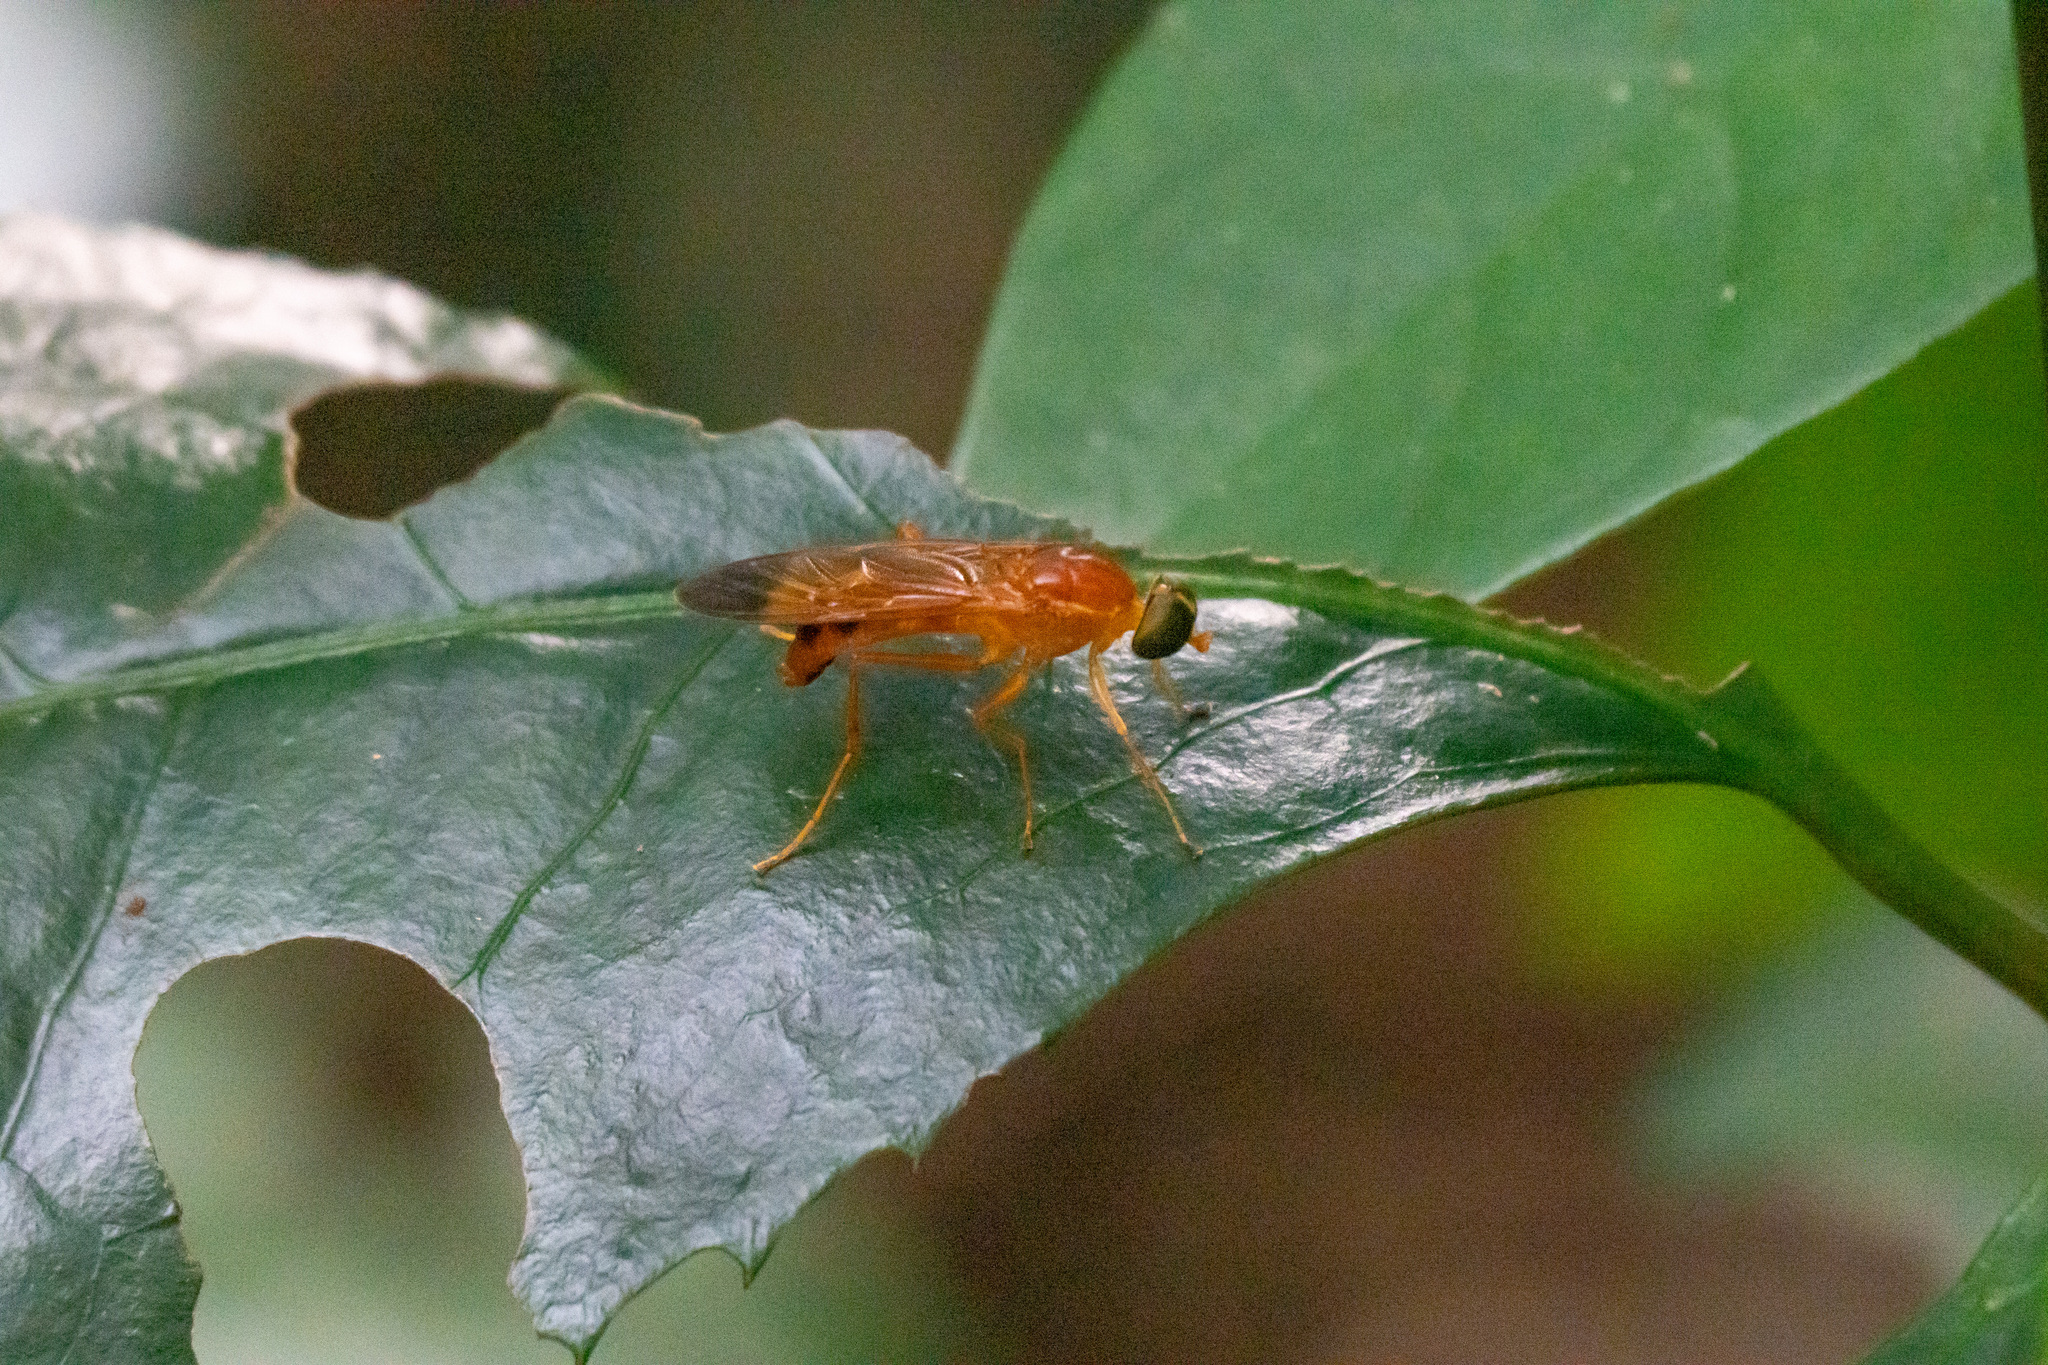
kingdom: Animalia
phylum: Arthropoda
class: Insecta
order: Diptera
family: Stratiomyidae
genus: Ptecticus
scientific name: Ptecticus aurifer
